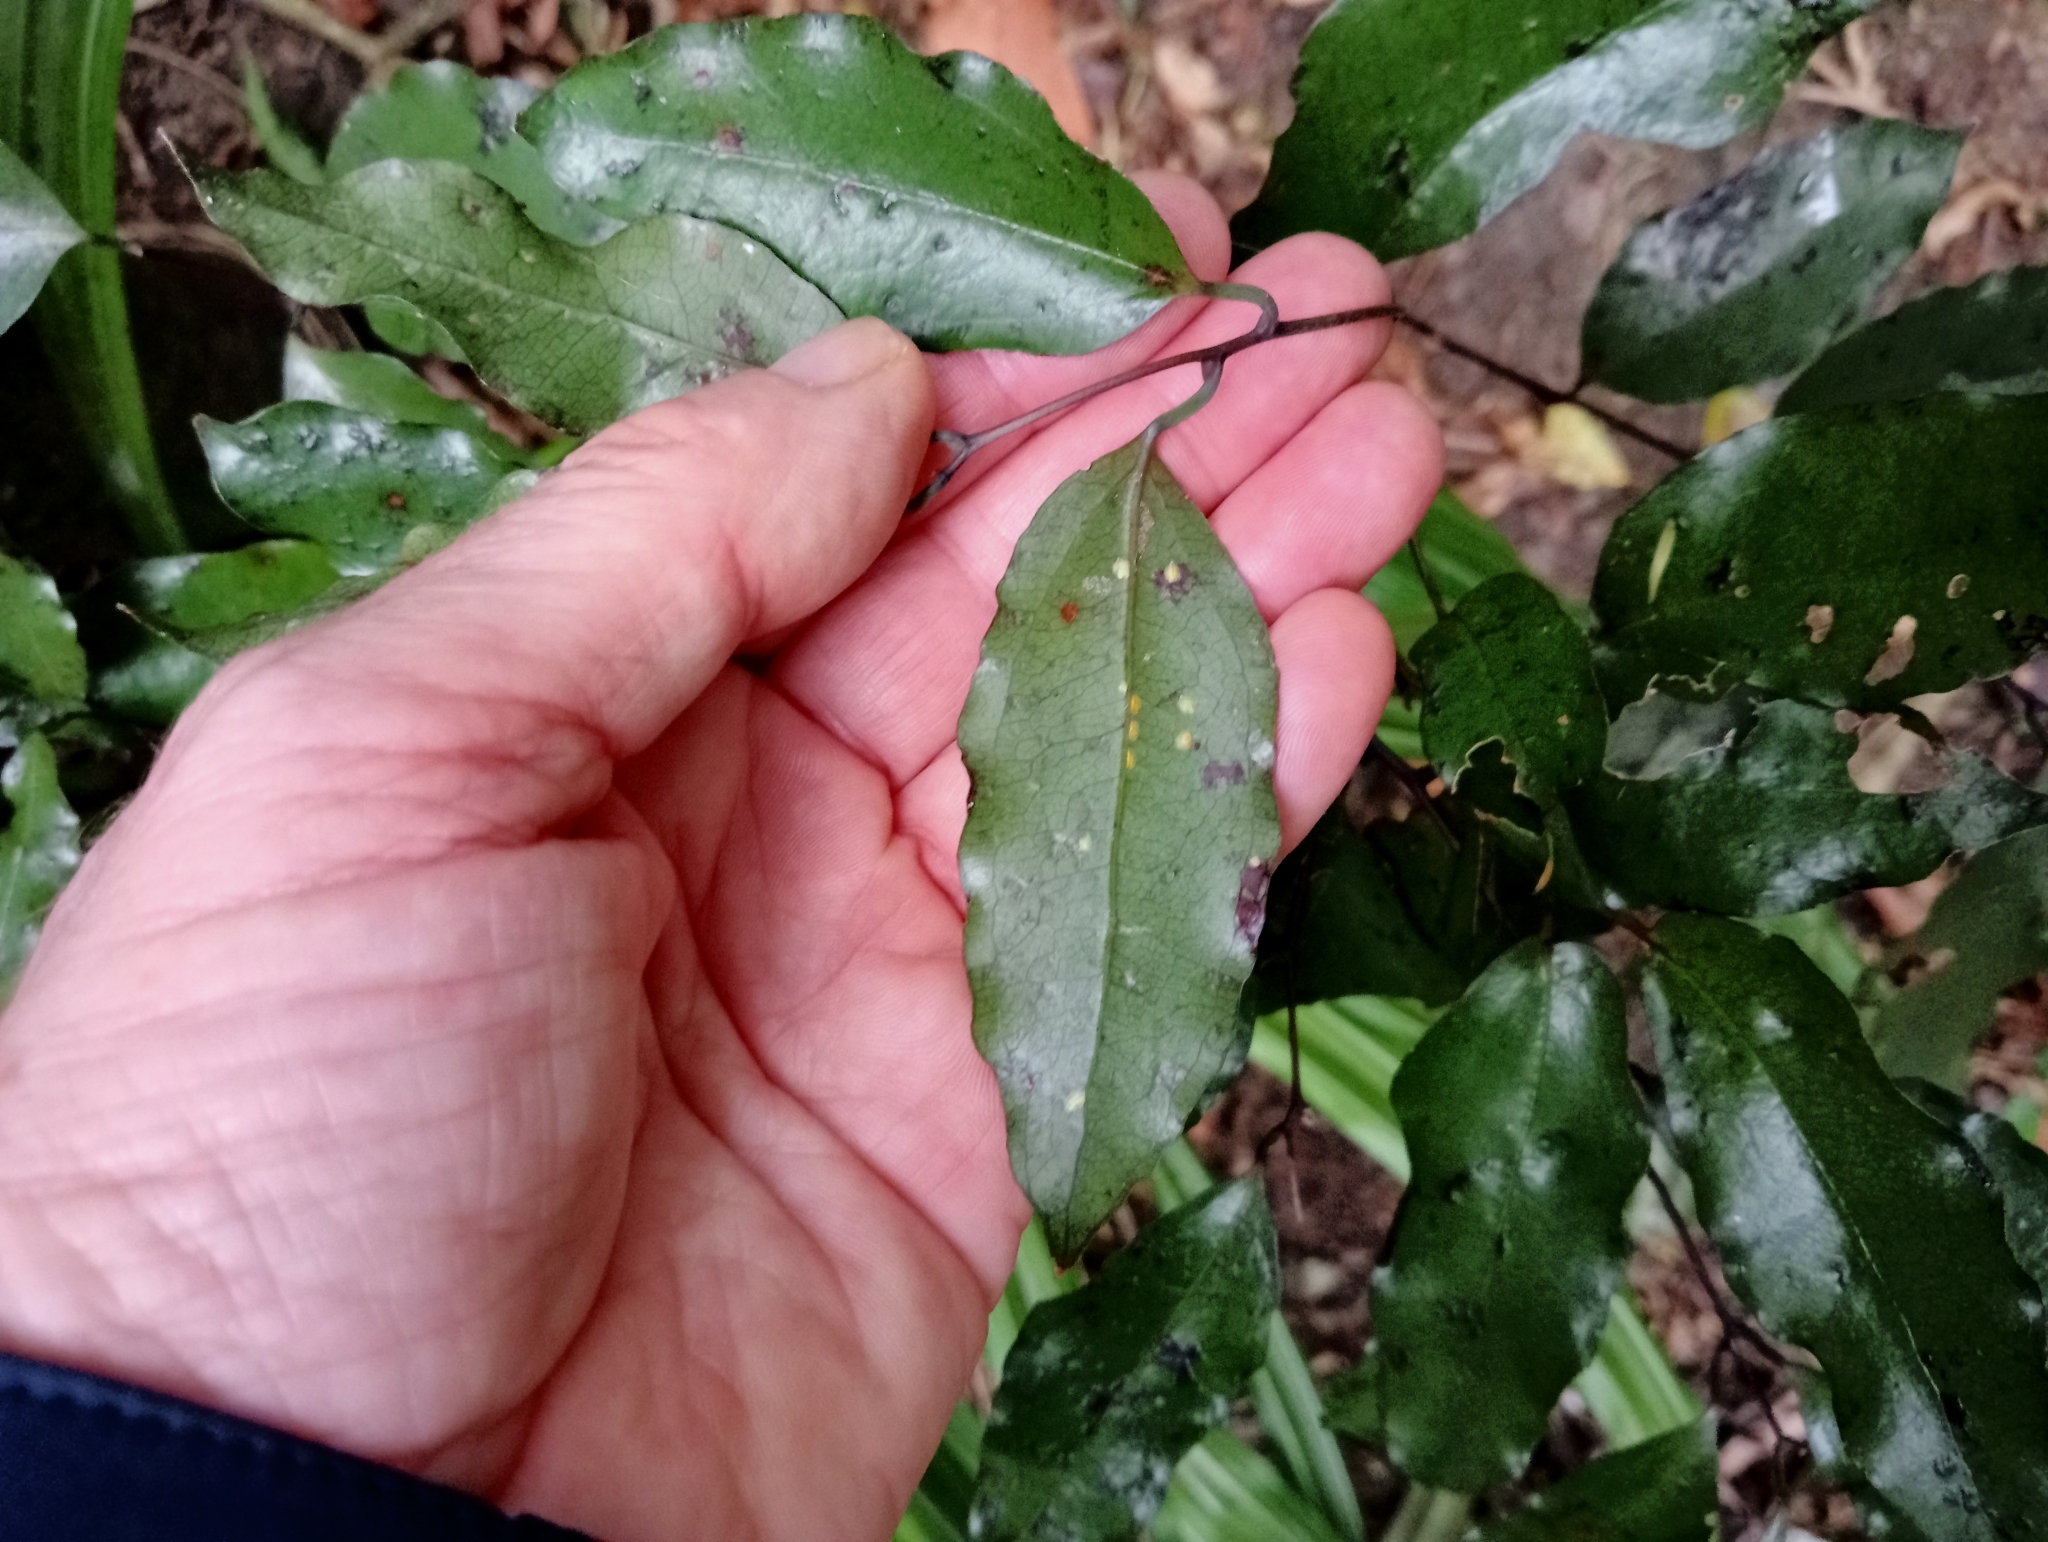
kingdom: Plantae
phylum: Tracheophyta
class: Liliopsida
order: Liliales
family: Ripogonaceae
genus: Ripogonum
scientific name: Ripogonum scandens
